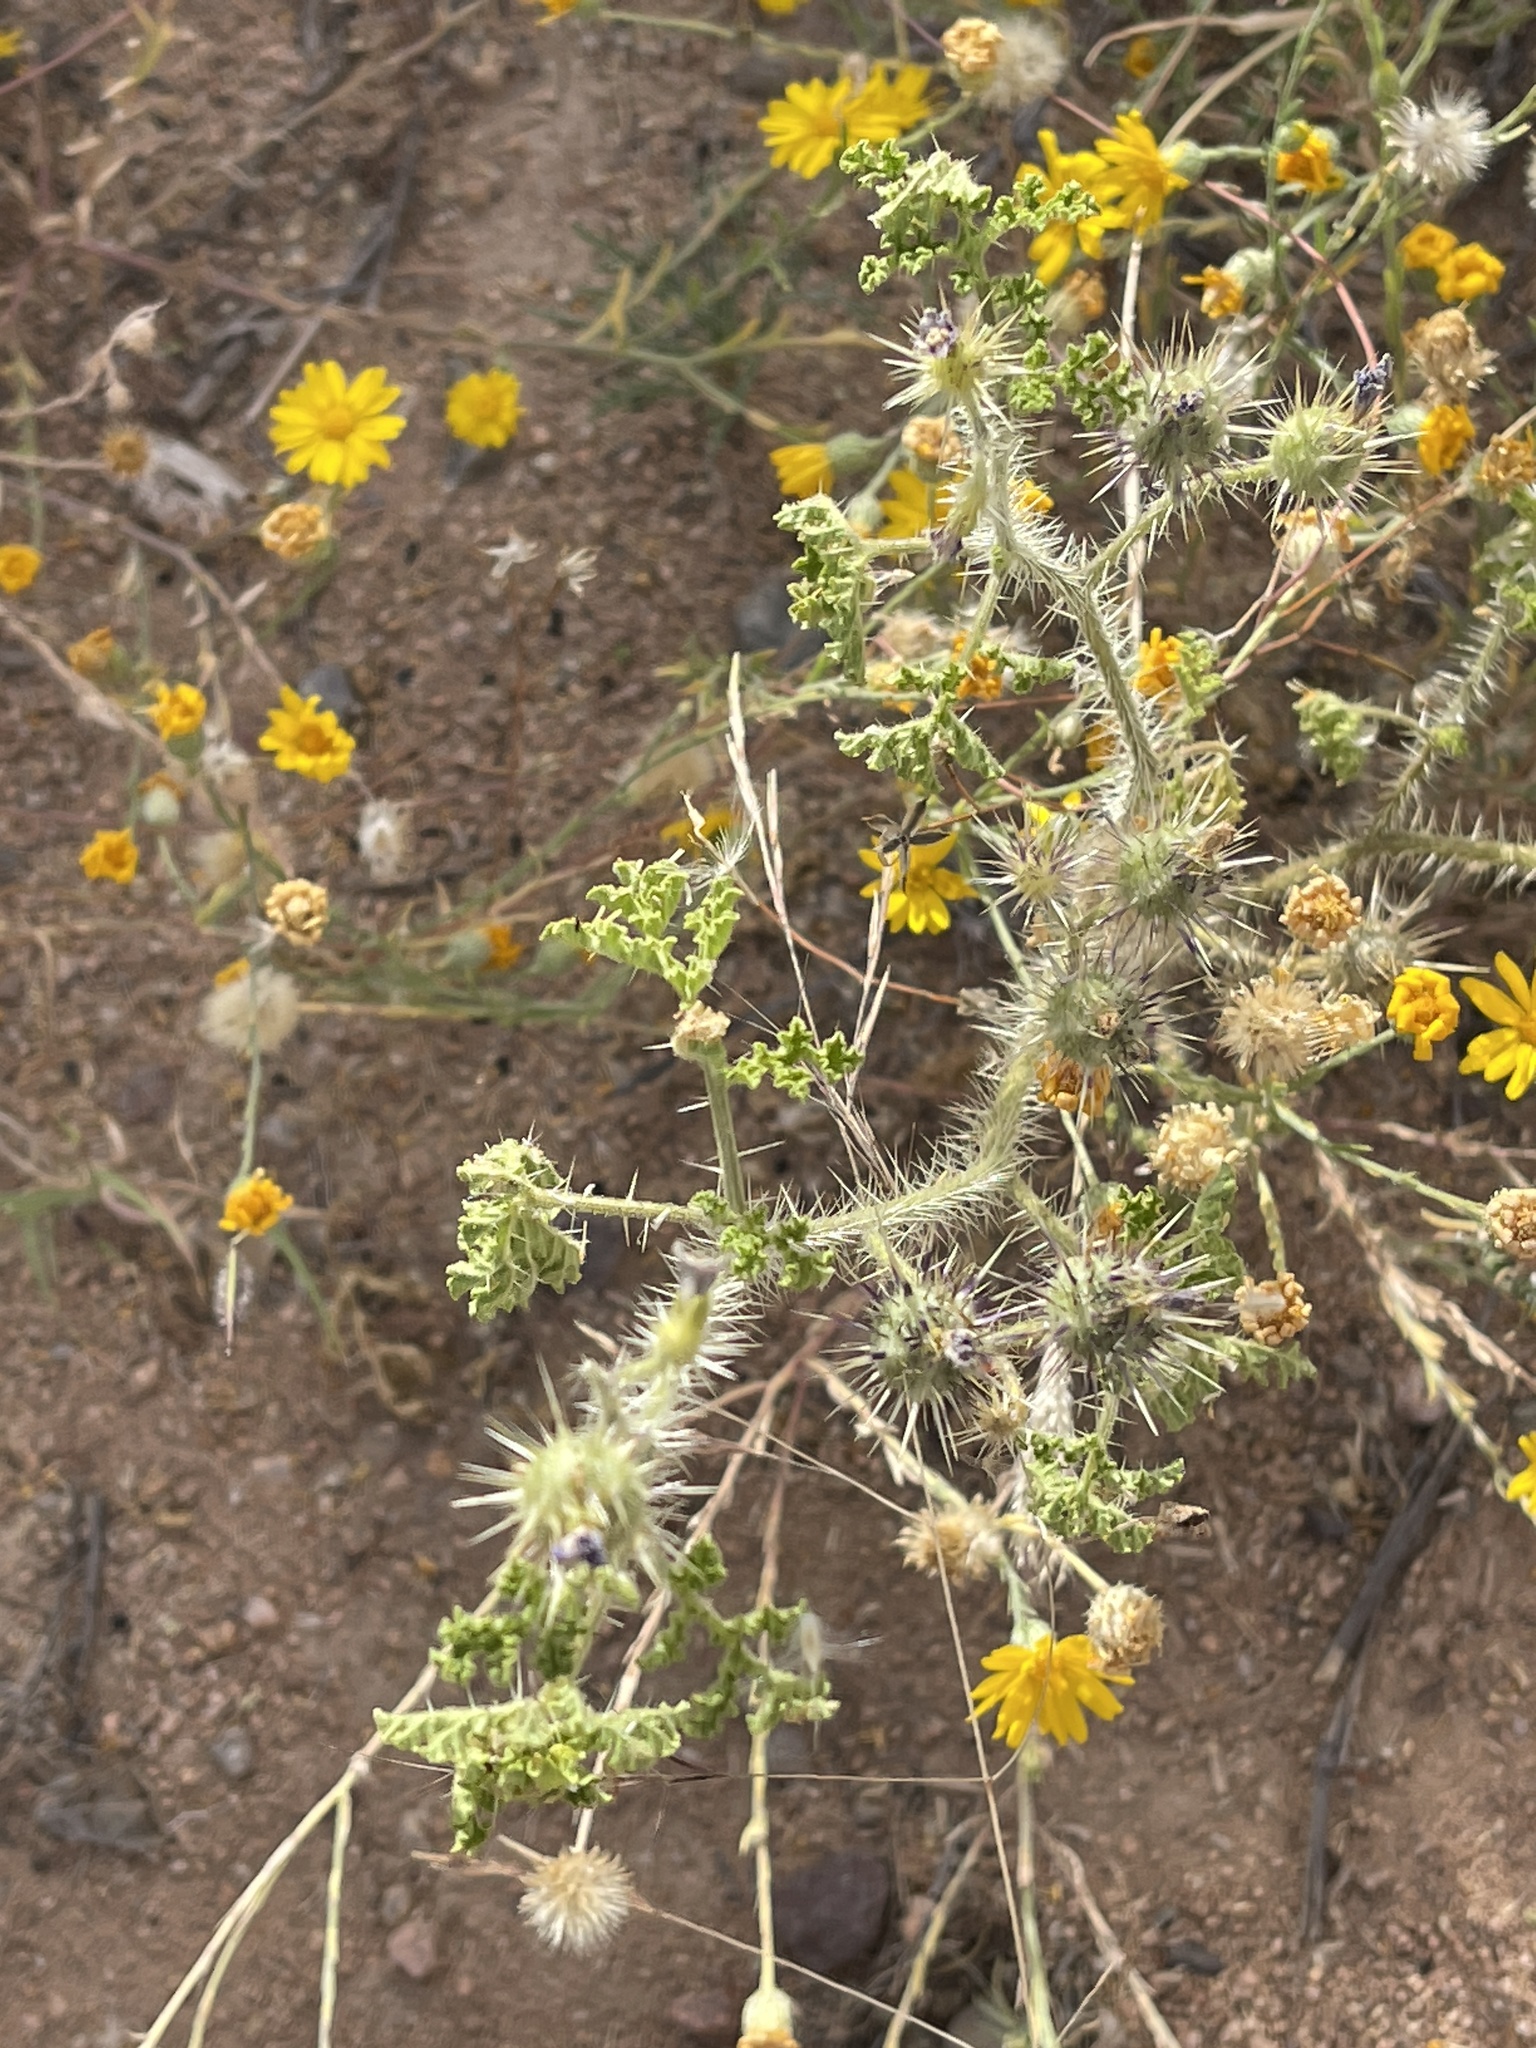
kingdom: Plantae
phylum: Tracheophyta
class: Magnoliopsida
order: Solanales
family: Solanaceae
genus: Solanum
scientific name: Solanum angustifolium
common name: Buffalobur nightshade
